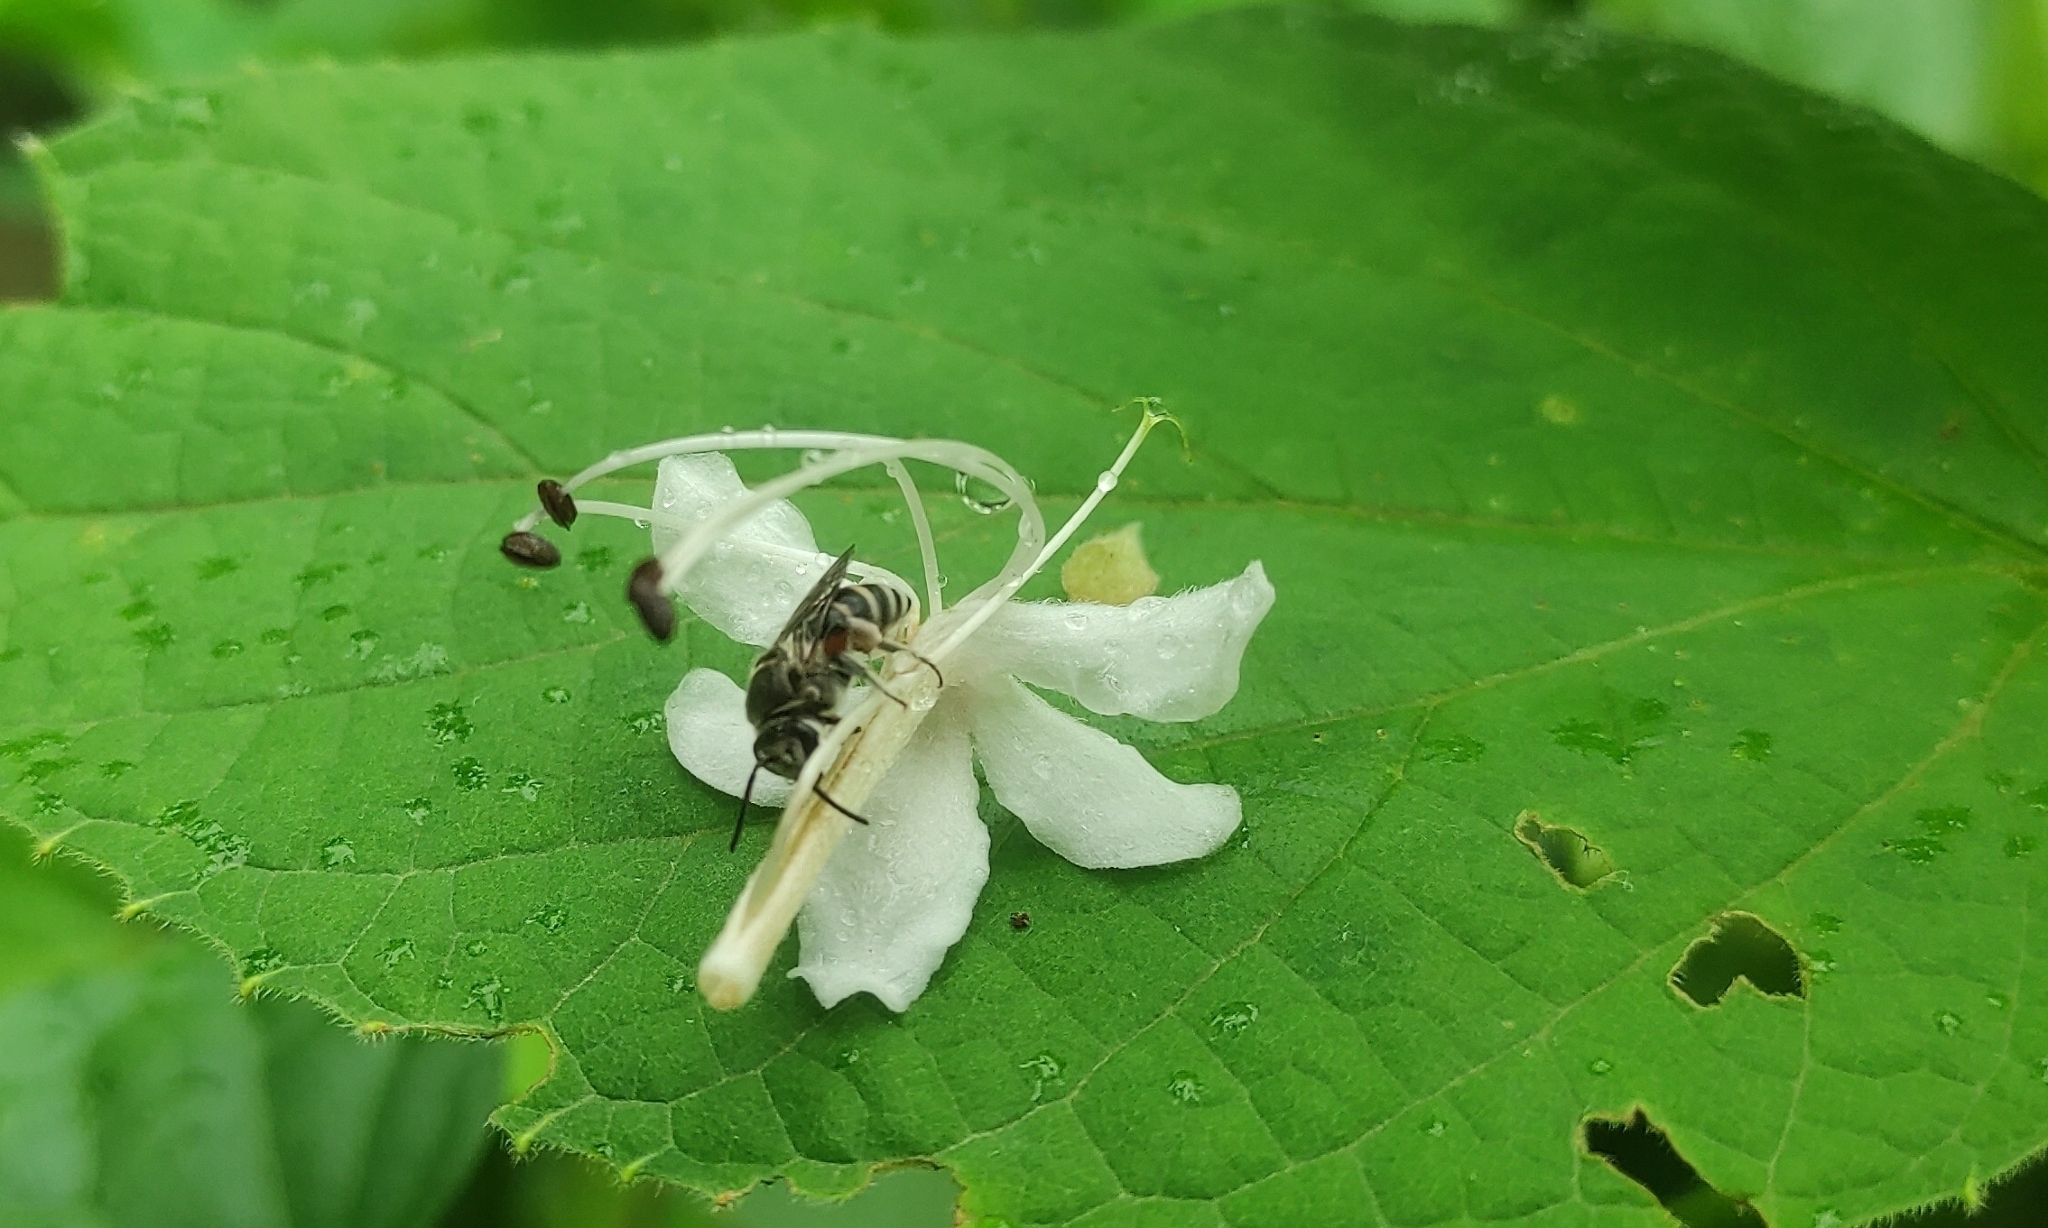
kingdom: Animalia
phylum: Arthropoda
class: Insecta
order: Hymenoptera
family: Halictidae
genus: Nomia
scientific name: Nomia westwoodi
